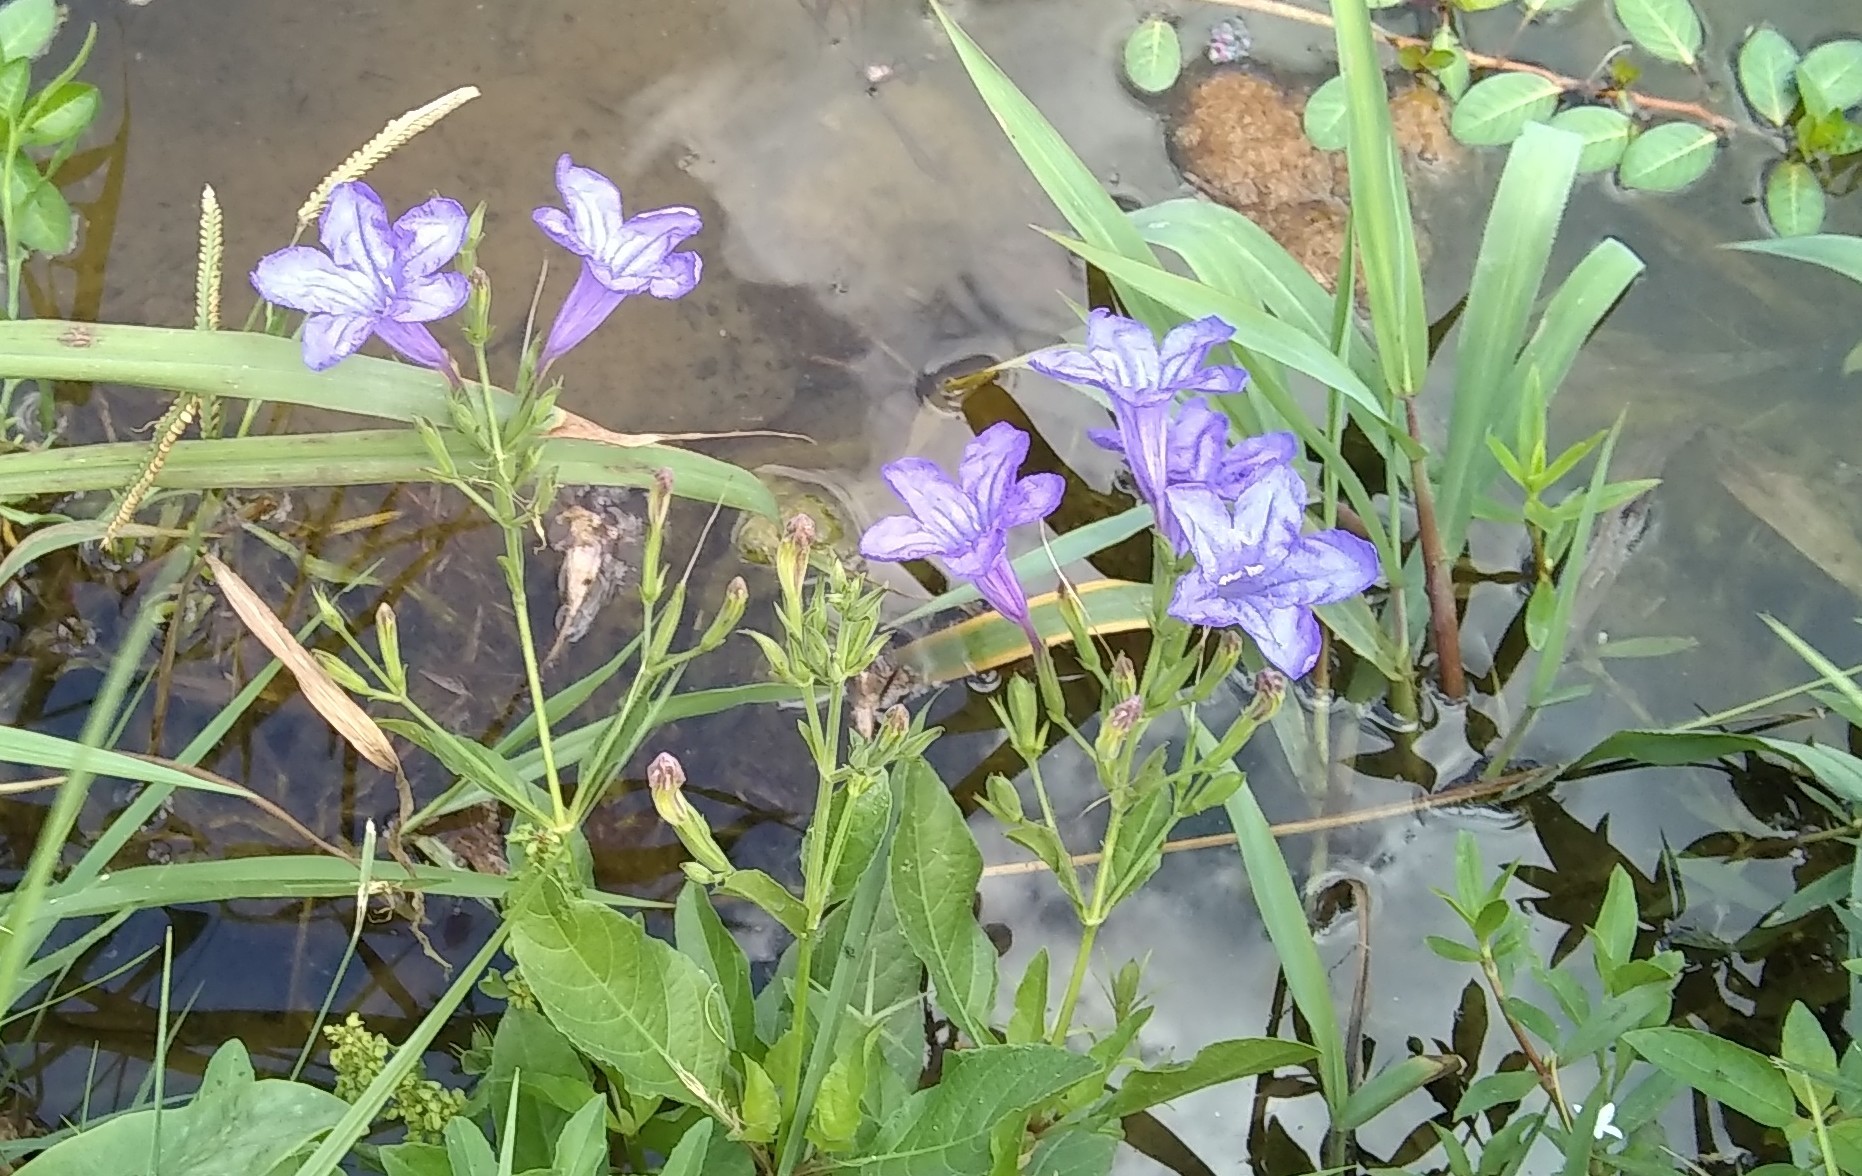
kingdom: Plantae
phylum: Tracheophyta
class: Magnoliopsida
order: Lamiales
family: Acanthaceae
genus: Ruellia
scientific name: Ruellia ciliatiflora
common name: Hairyflower wild petunia
